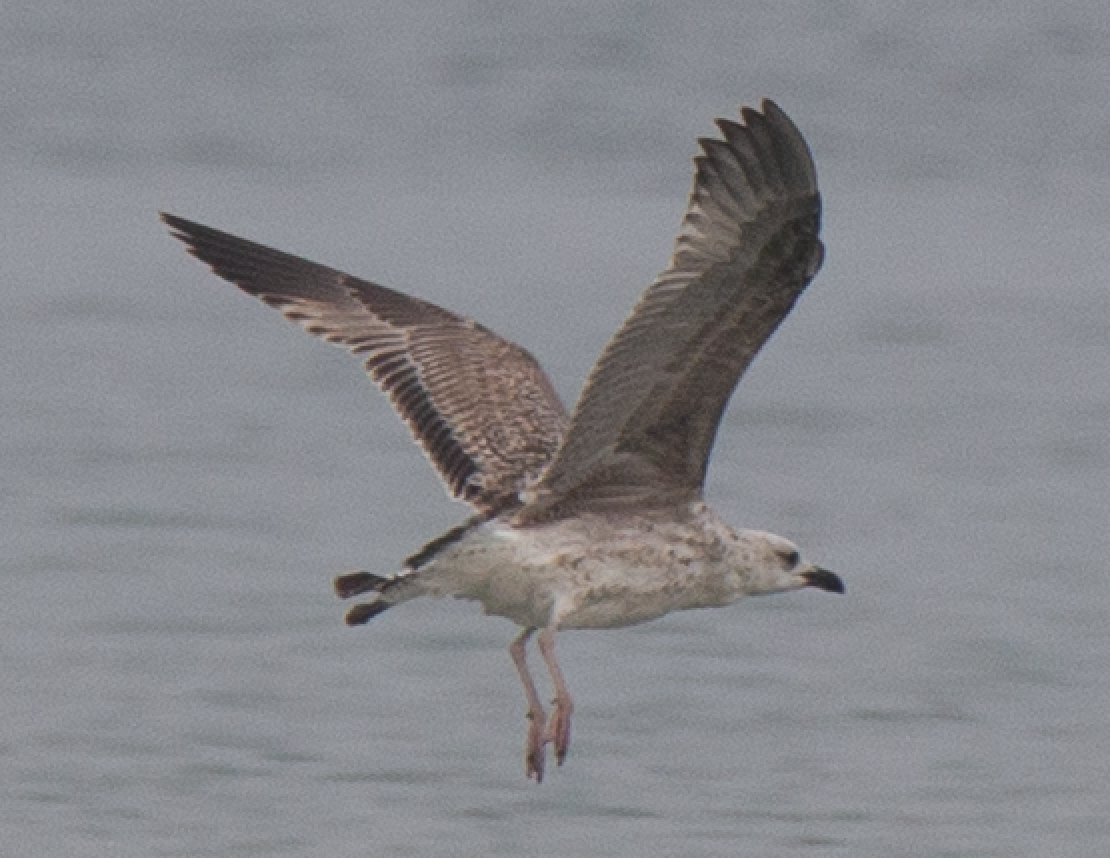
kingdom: Animalia
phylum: Chordata
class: Aves
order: Charadriiformes
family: Laridae
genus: Larus
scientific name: Larus michahellis
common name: Yellow-legged gull
